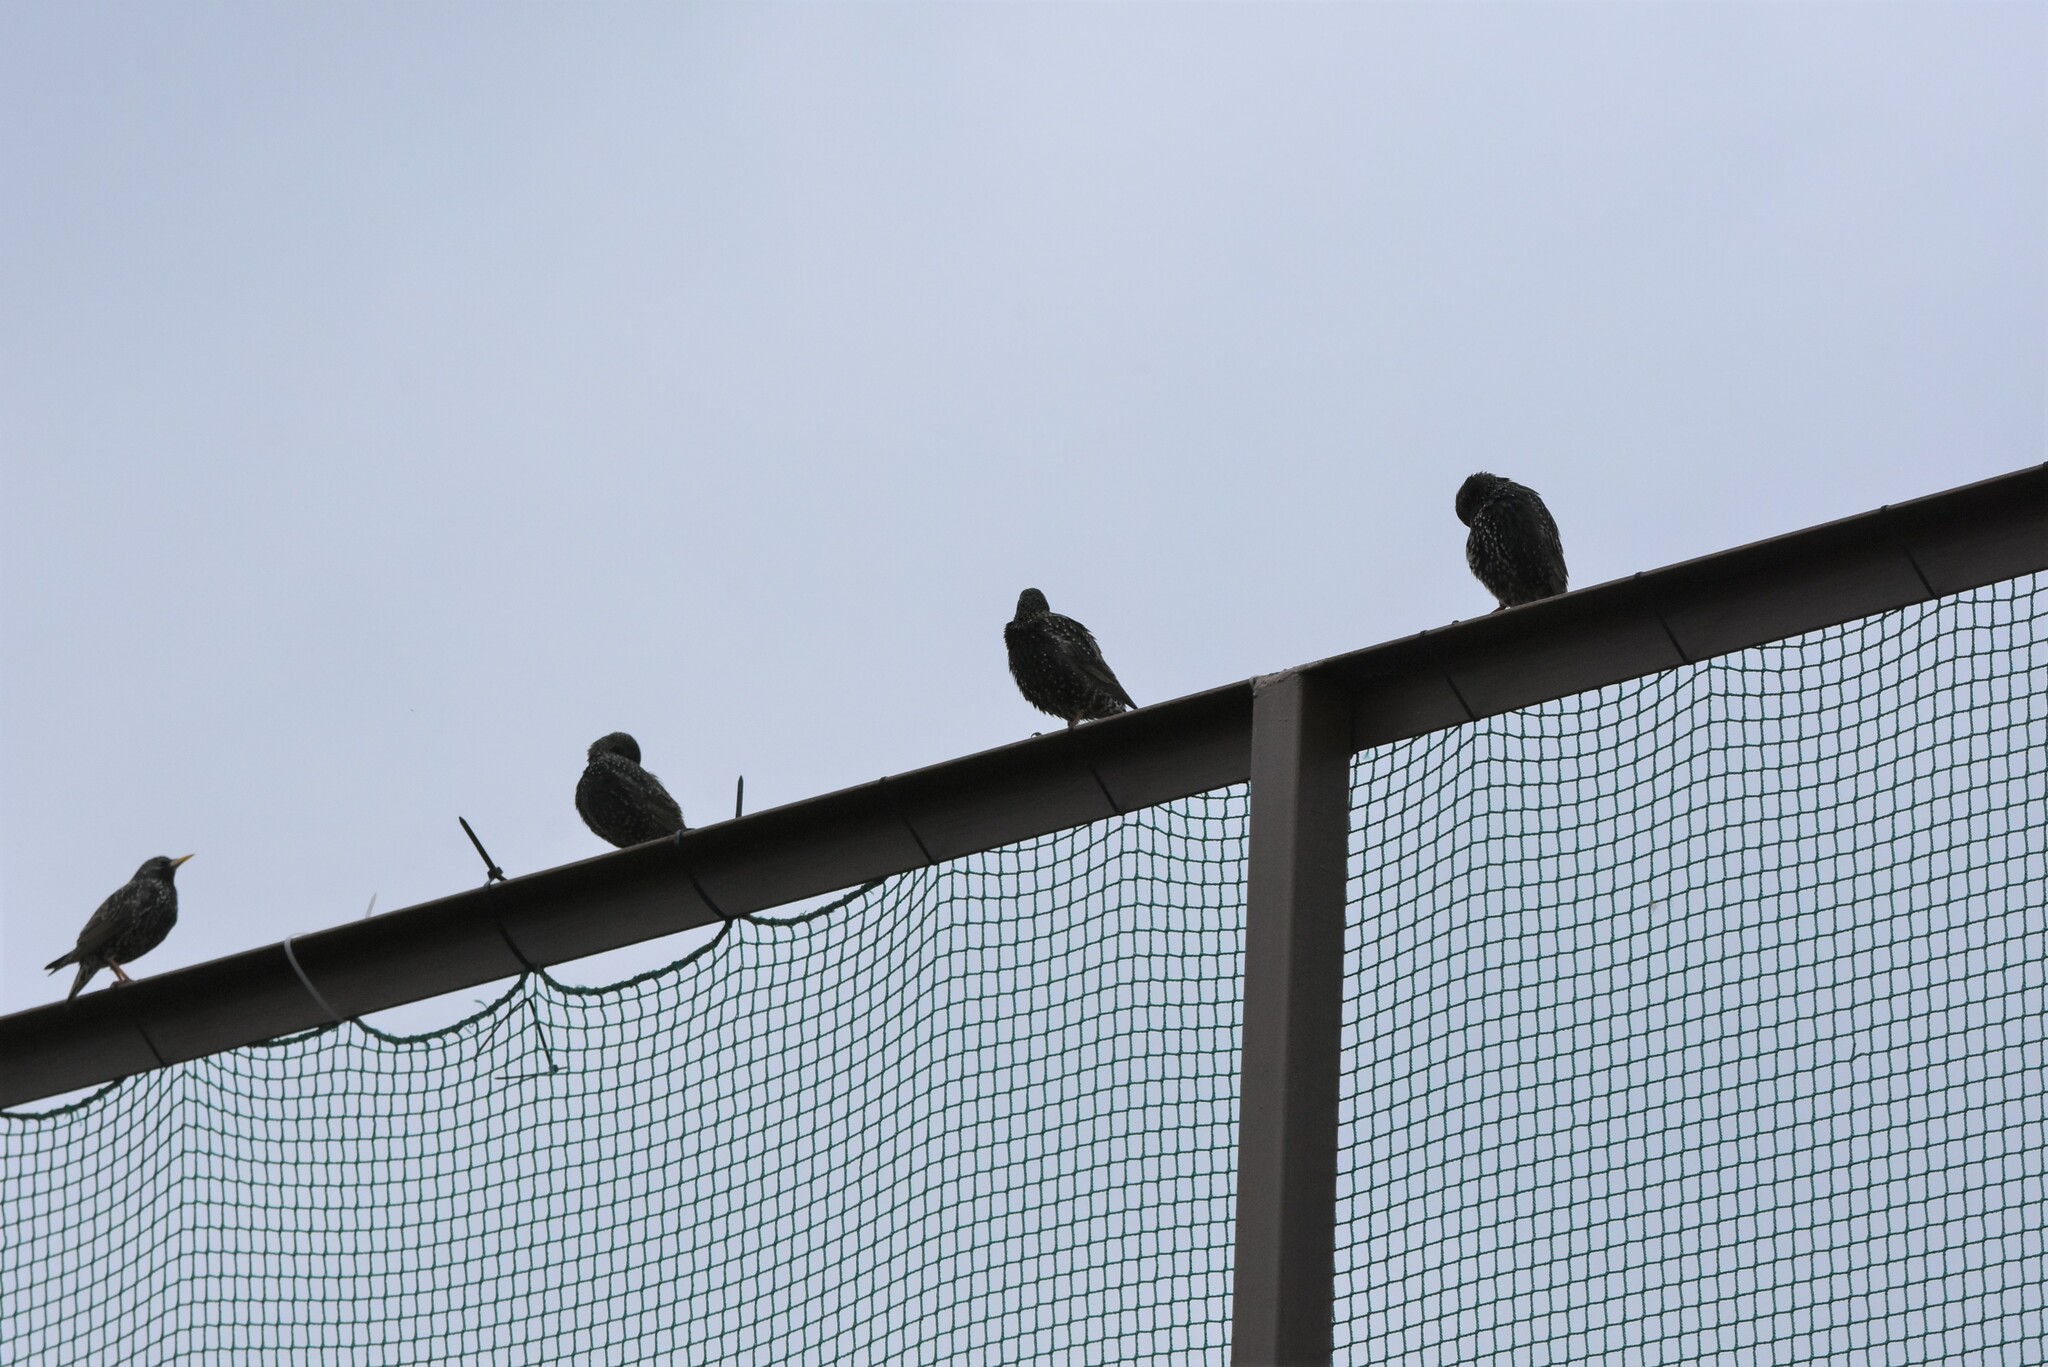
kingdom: Animalia
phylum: Chordata
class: Aves
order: Passeriformes
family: Sturnidae
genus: Sturnus
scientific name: Sturnus vulgaris
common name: Common starling
